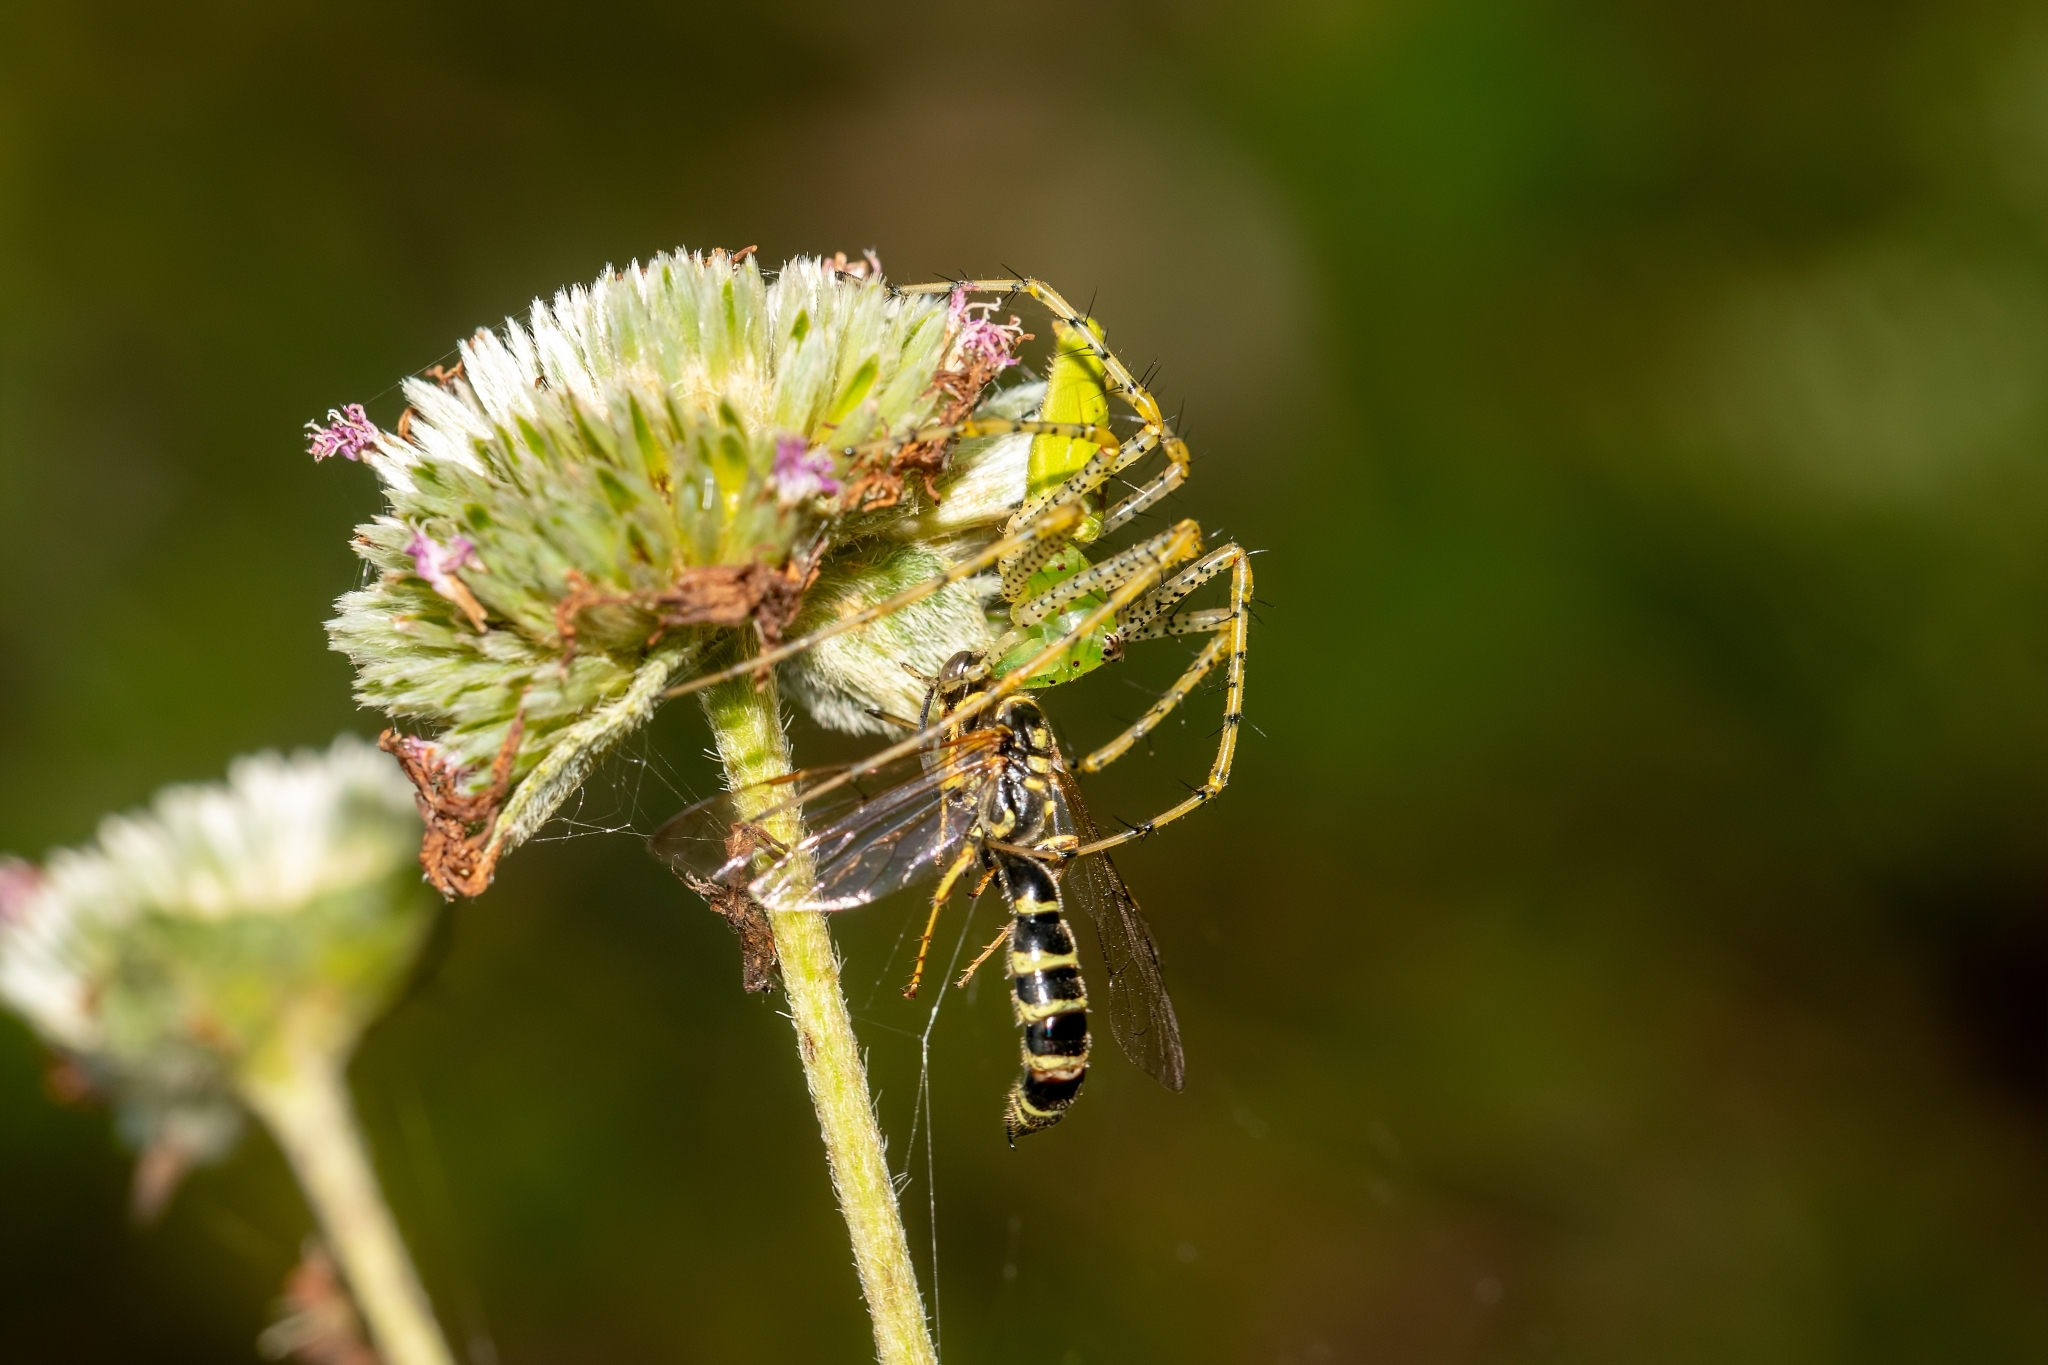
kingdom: Animalia
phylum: Arthropoda
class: Arachnida
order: Araneae
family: Oxyopidae
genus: Peucetia
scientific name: Peucetia viridans
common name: Lynx spiders
